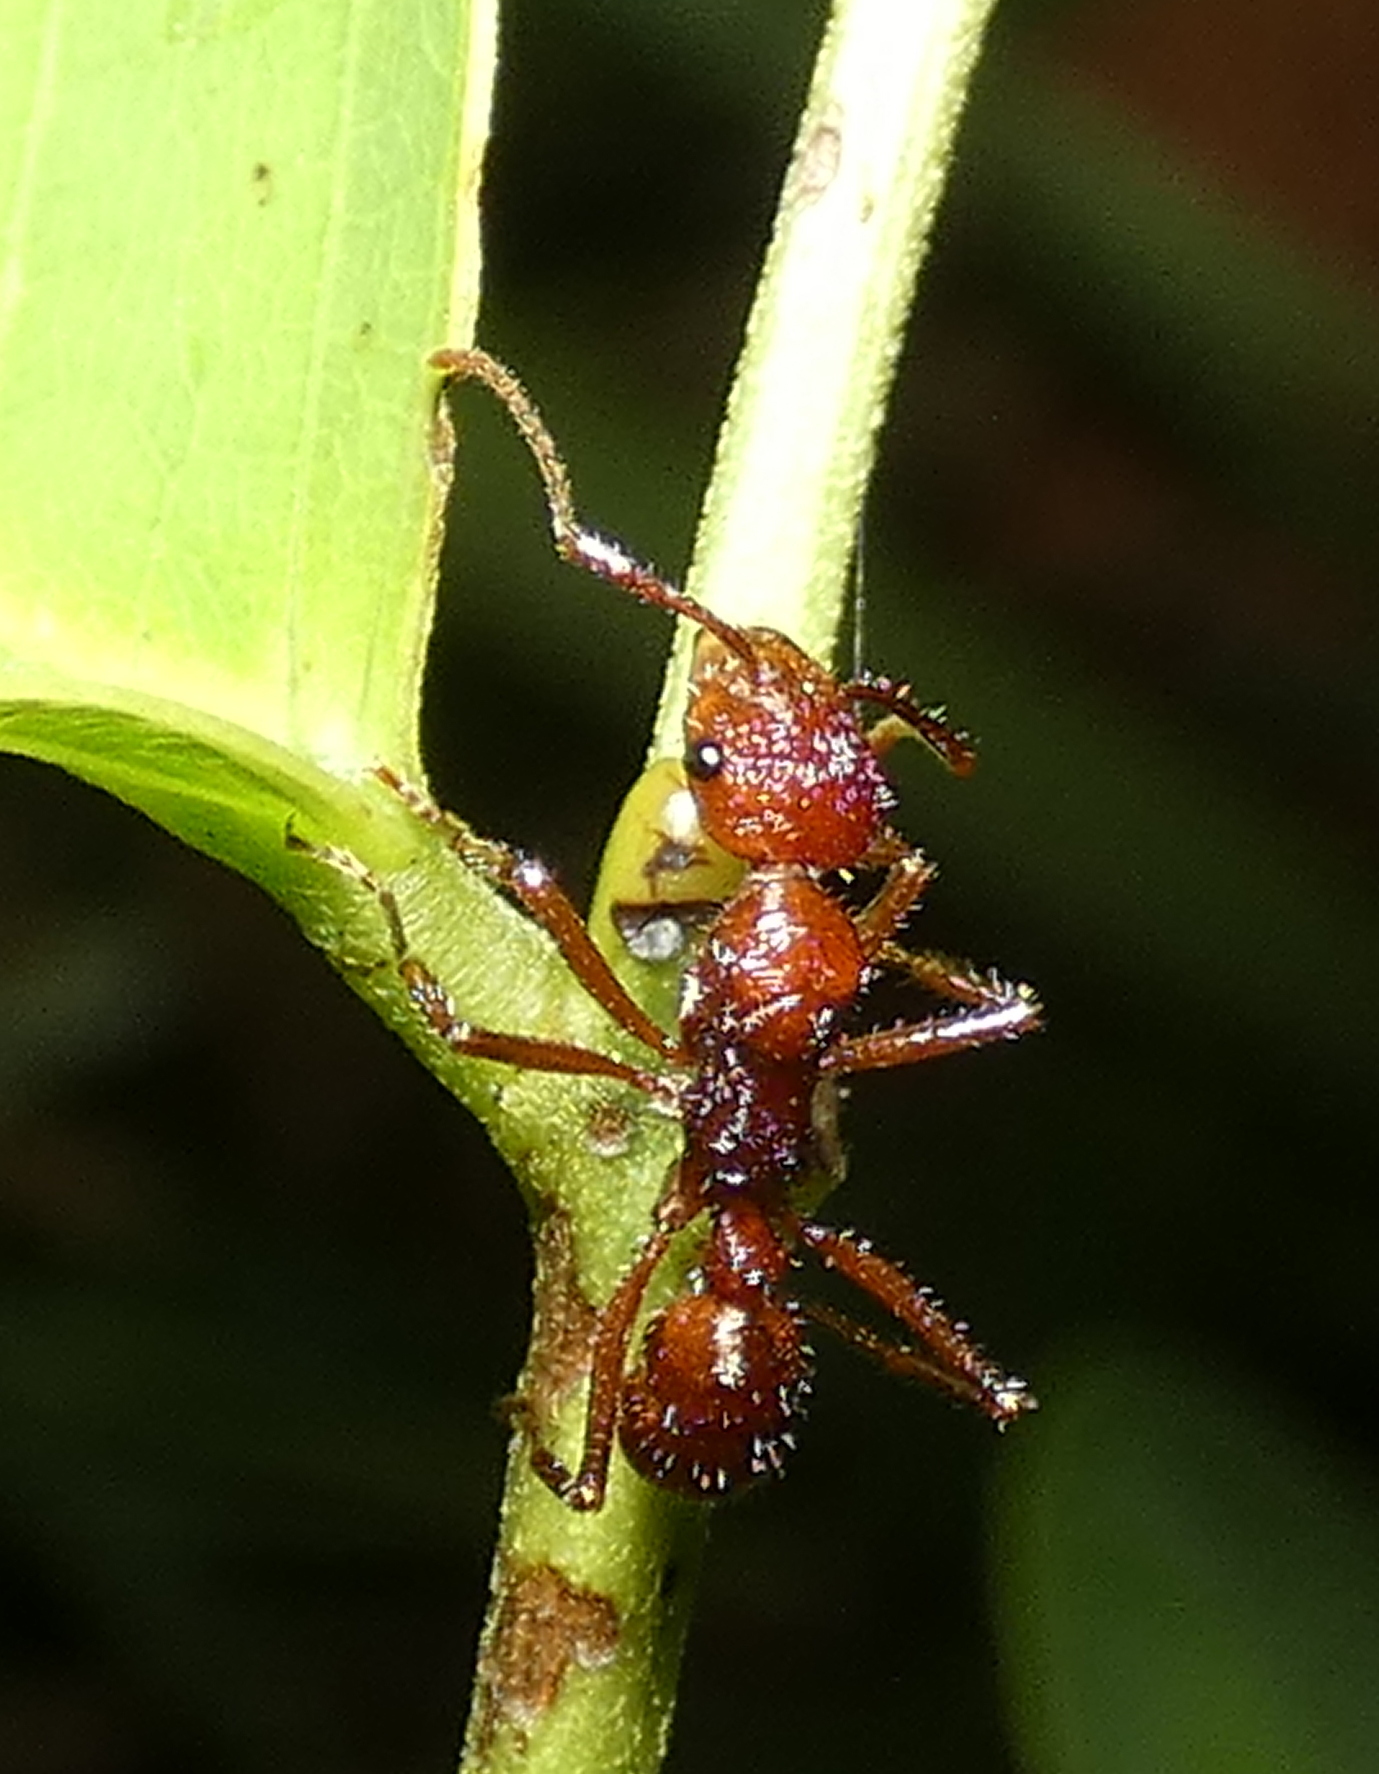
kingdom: Animalia
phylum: Arthropoda
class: Insecta
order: Hymenoptera
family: Formicidae
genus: Ectatomma
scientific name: Ectatomma tuberculatum
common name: Ant
